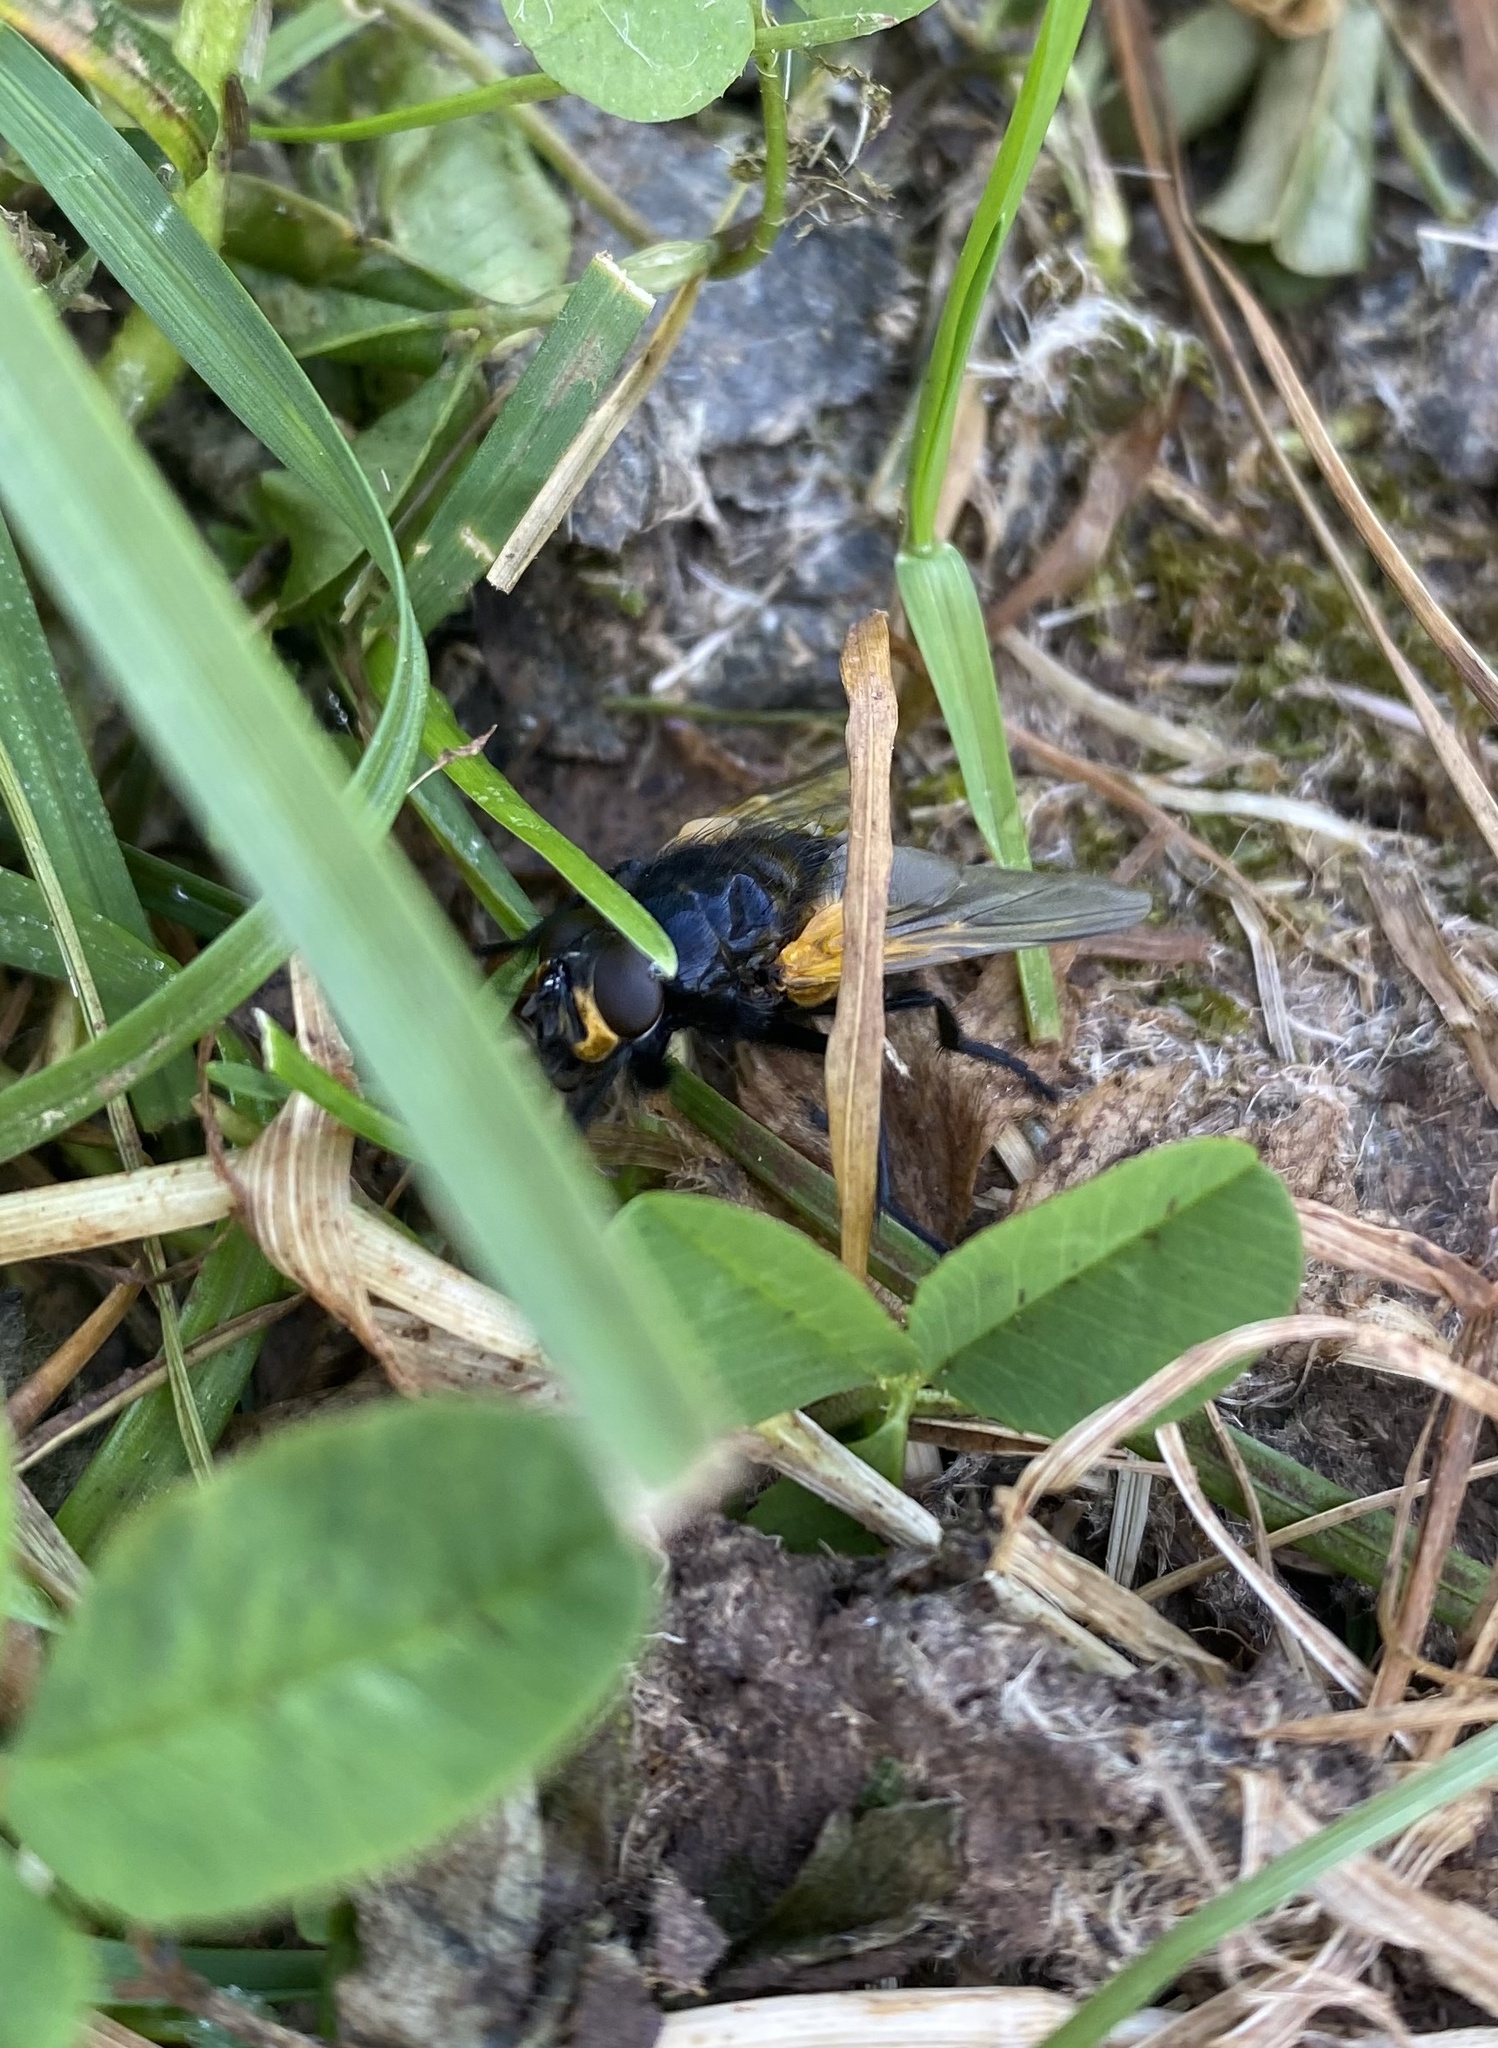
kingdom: Animalia
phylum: Arthropoda
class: Insecta
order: Diptera
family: Muscidae
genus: Mesembrina
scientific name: Mesembrina meridiana
